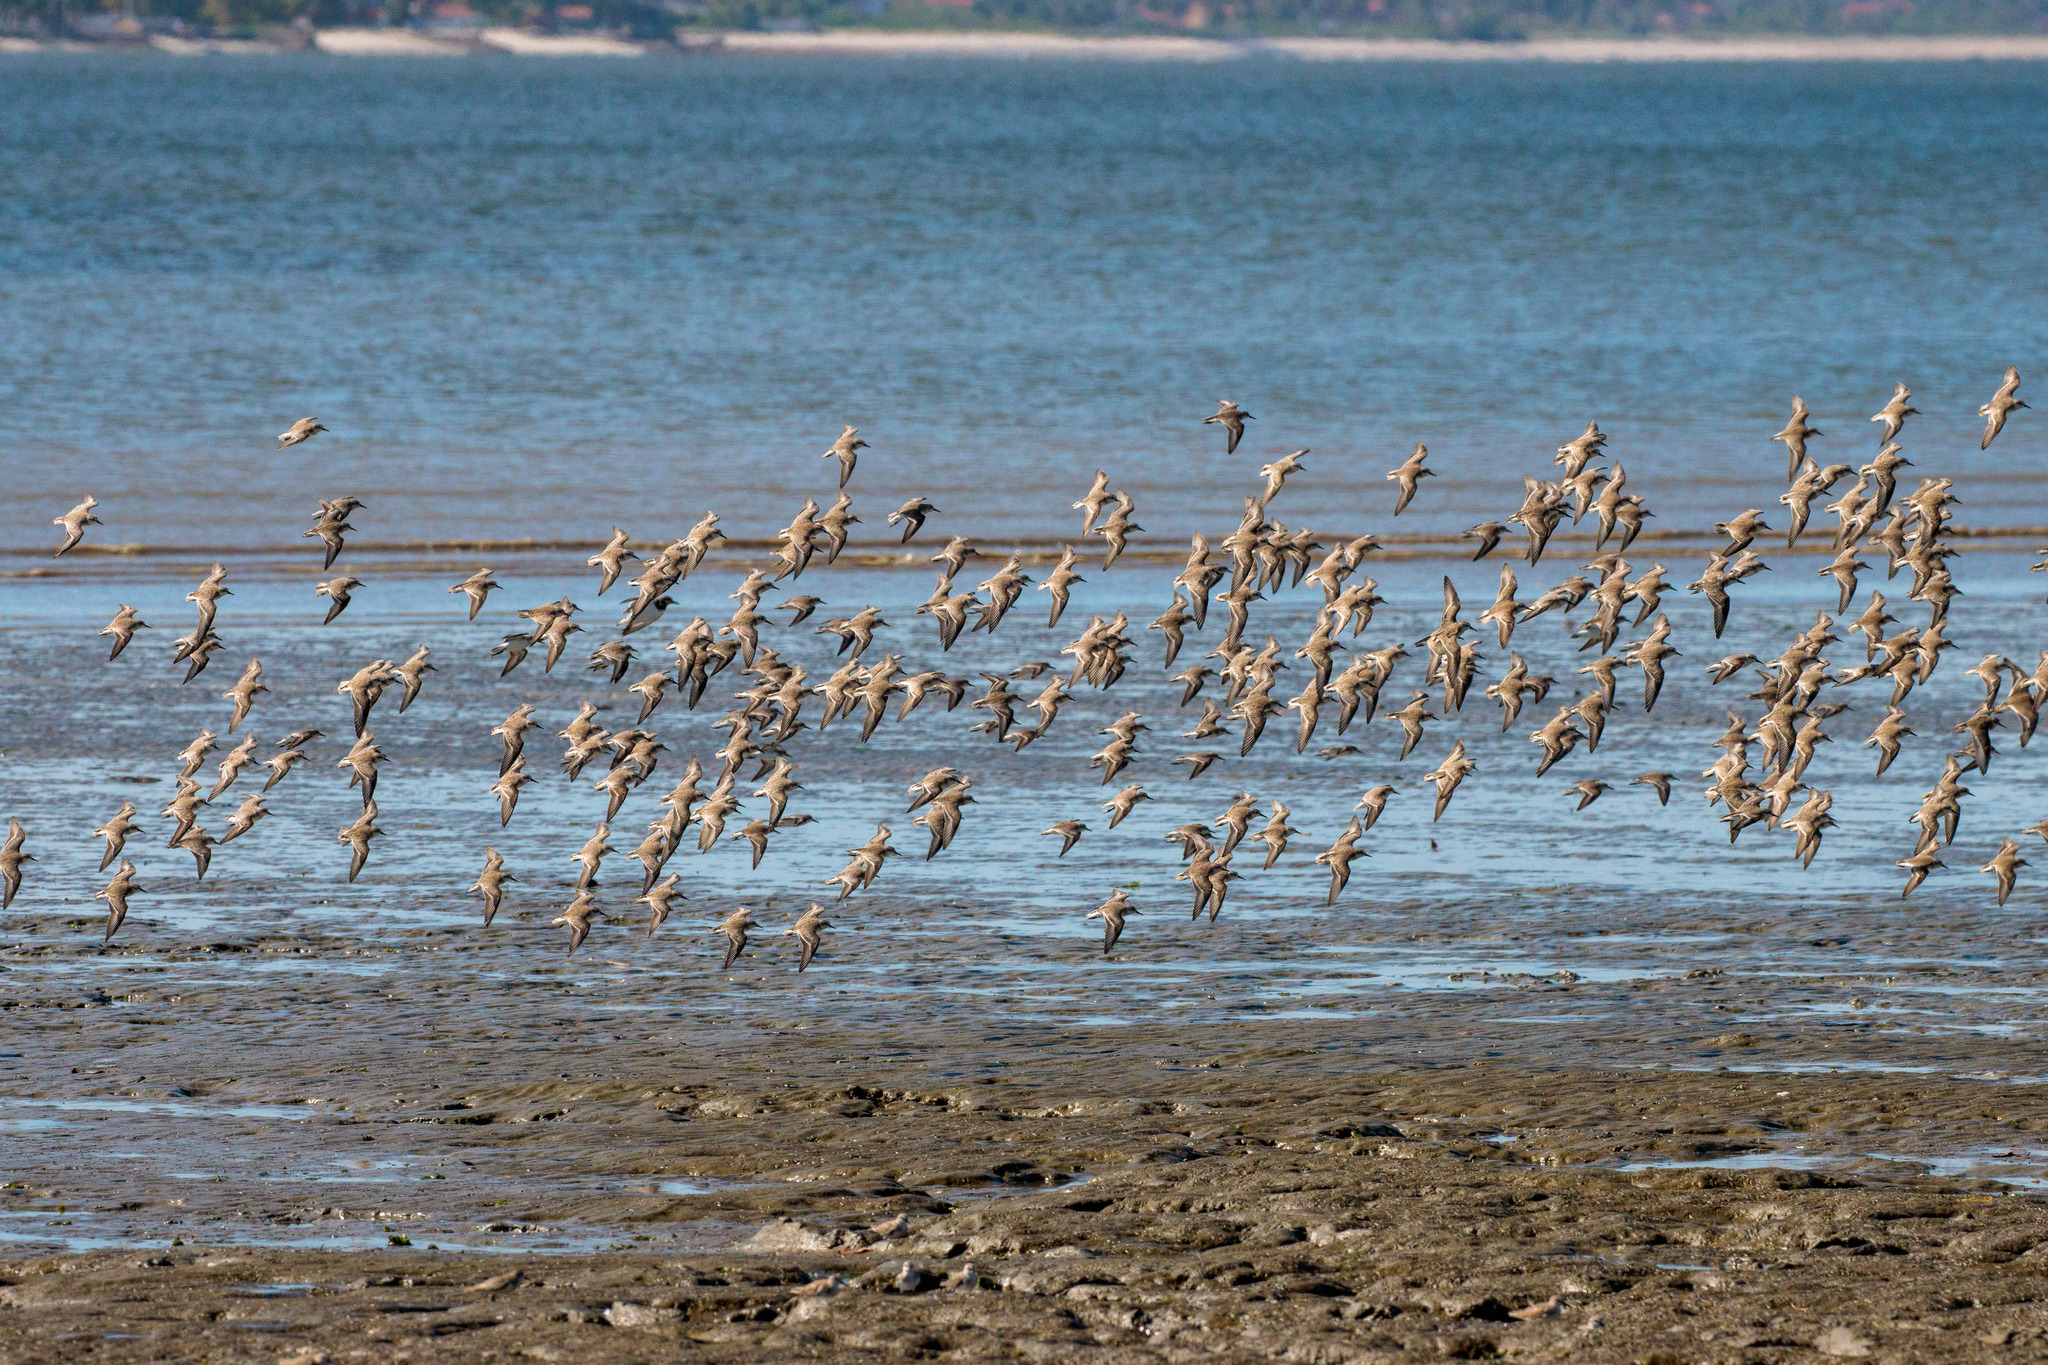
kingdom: Animalia
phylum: Chordata
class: Aves
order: Charadriiformes
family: Scolopacidae
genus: Calidris
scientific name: Calidris pusilla
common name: Semipalmated sandpiper
